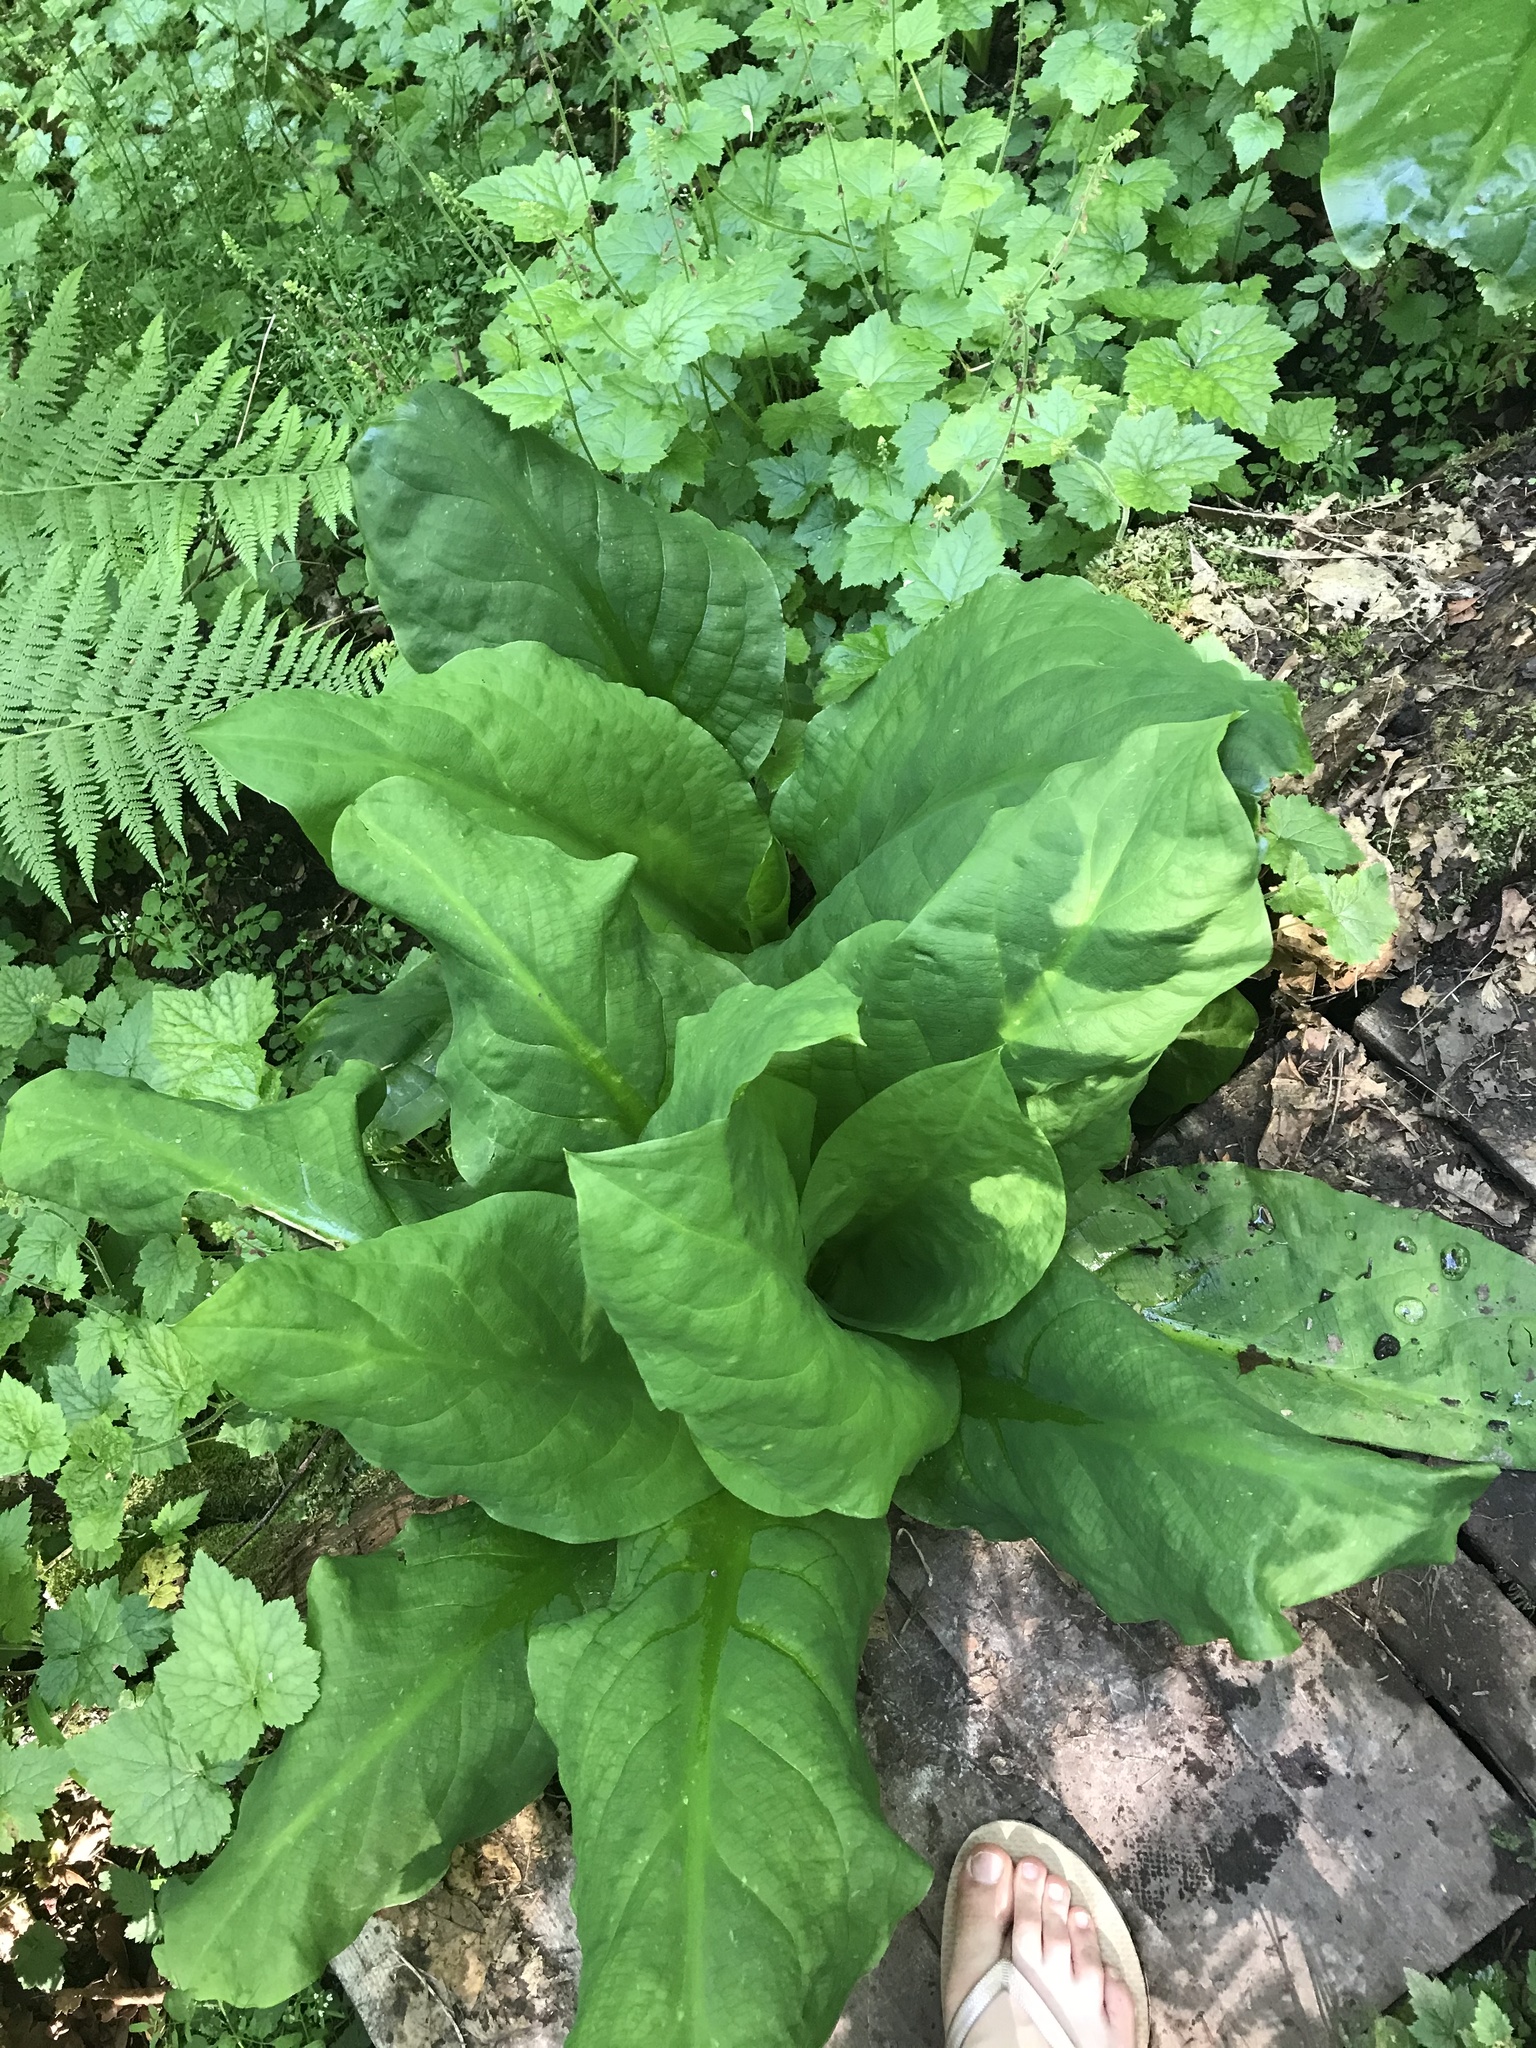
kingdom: Plantae
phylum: Tracheophyta
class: Liliopsida
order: Alismatales
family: Araceae
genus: Lysichiton
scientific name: Lysichiton americanus
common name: American skunk cabbage
